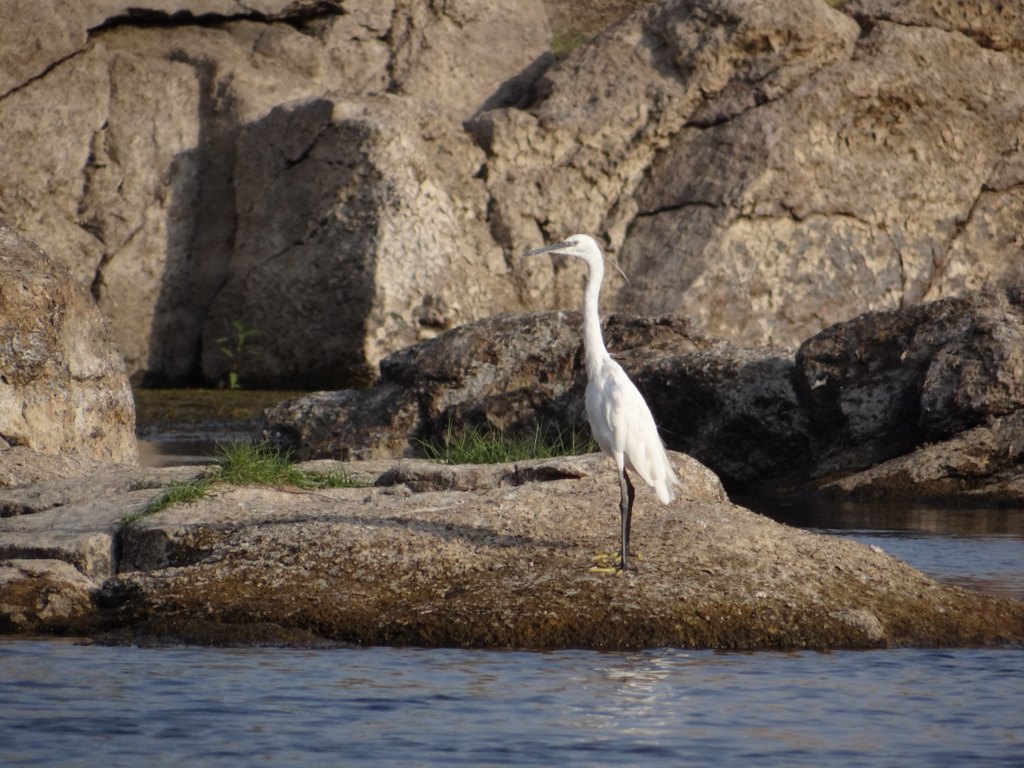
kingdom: Animalia
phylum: Chordata
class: Aves
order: Pelecaniformes
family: Ardeidae
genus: Egretta
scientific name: Egretta garzetta
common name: Little egret
